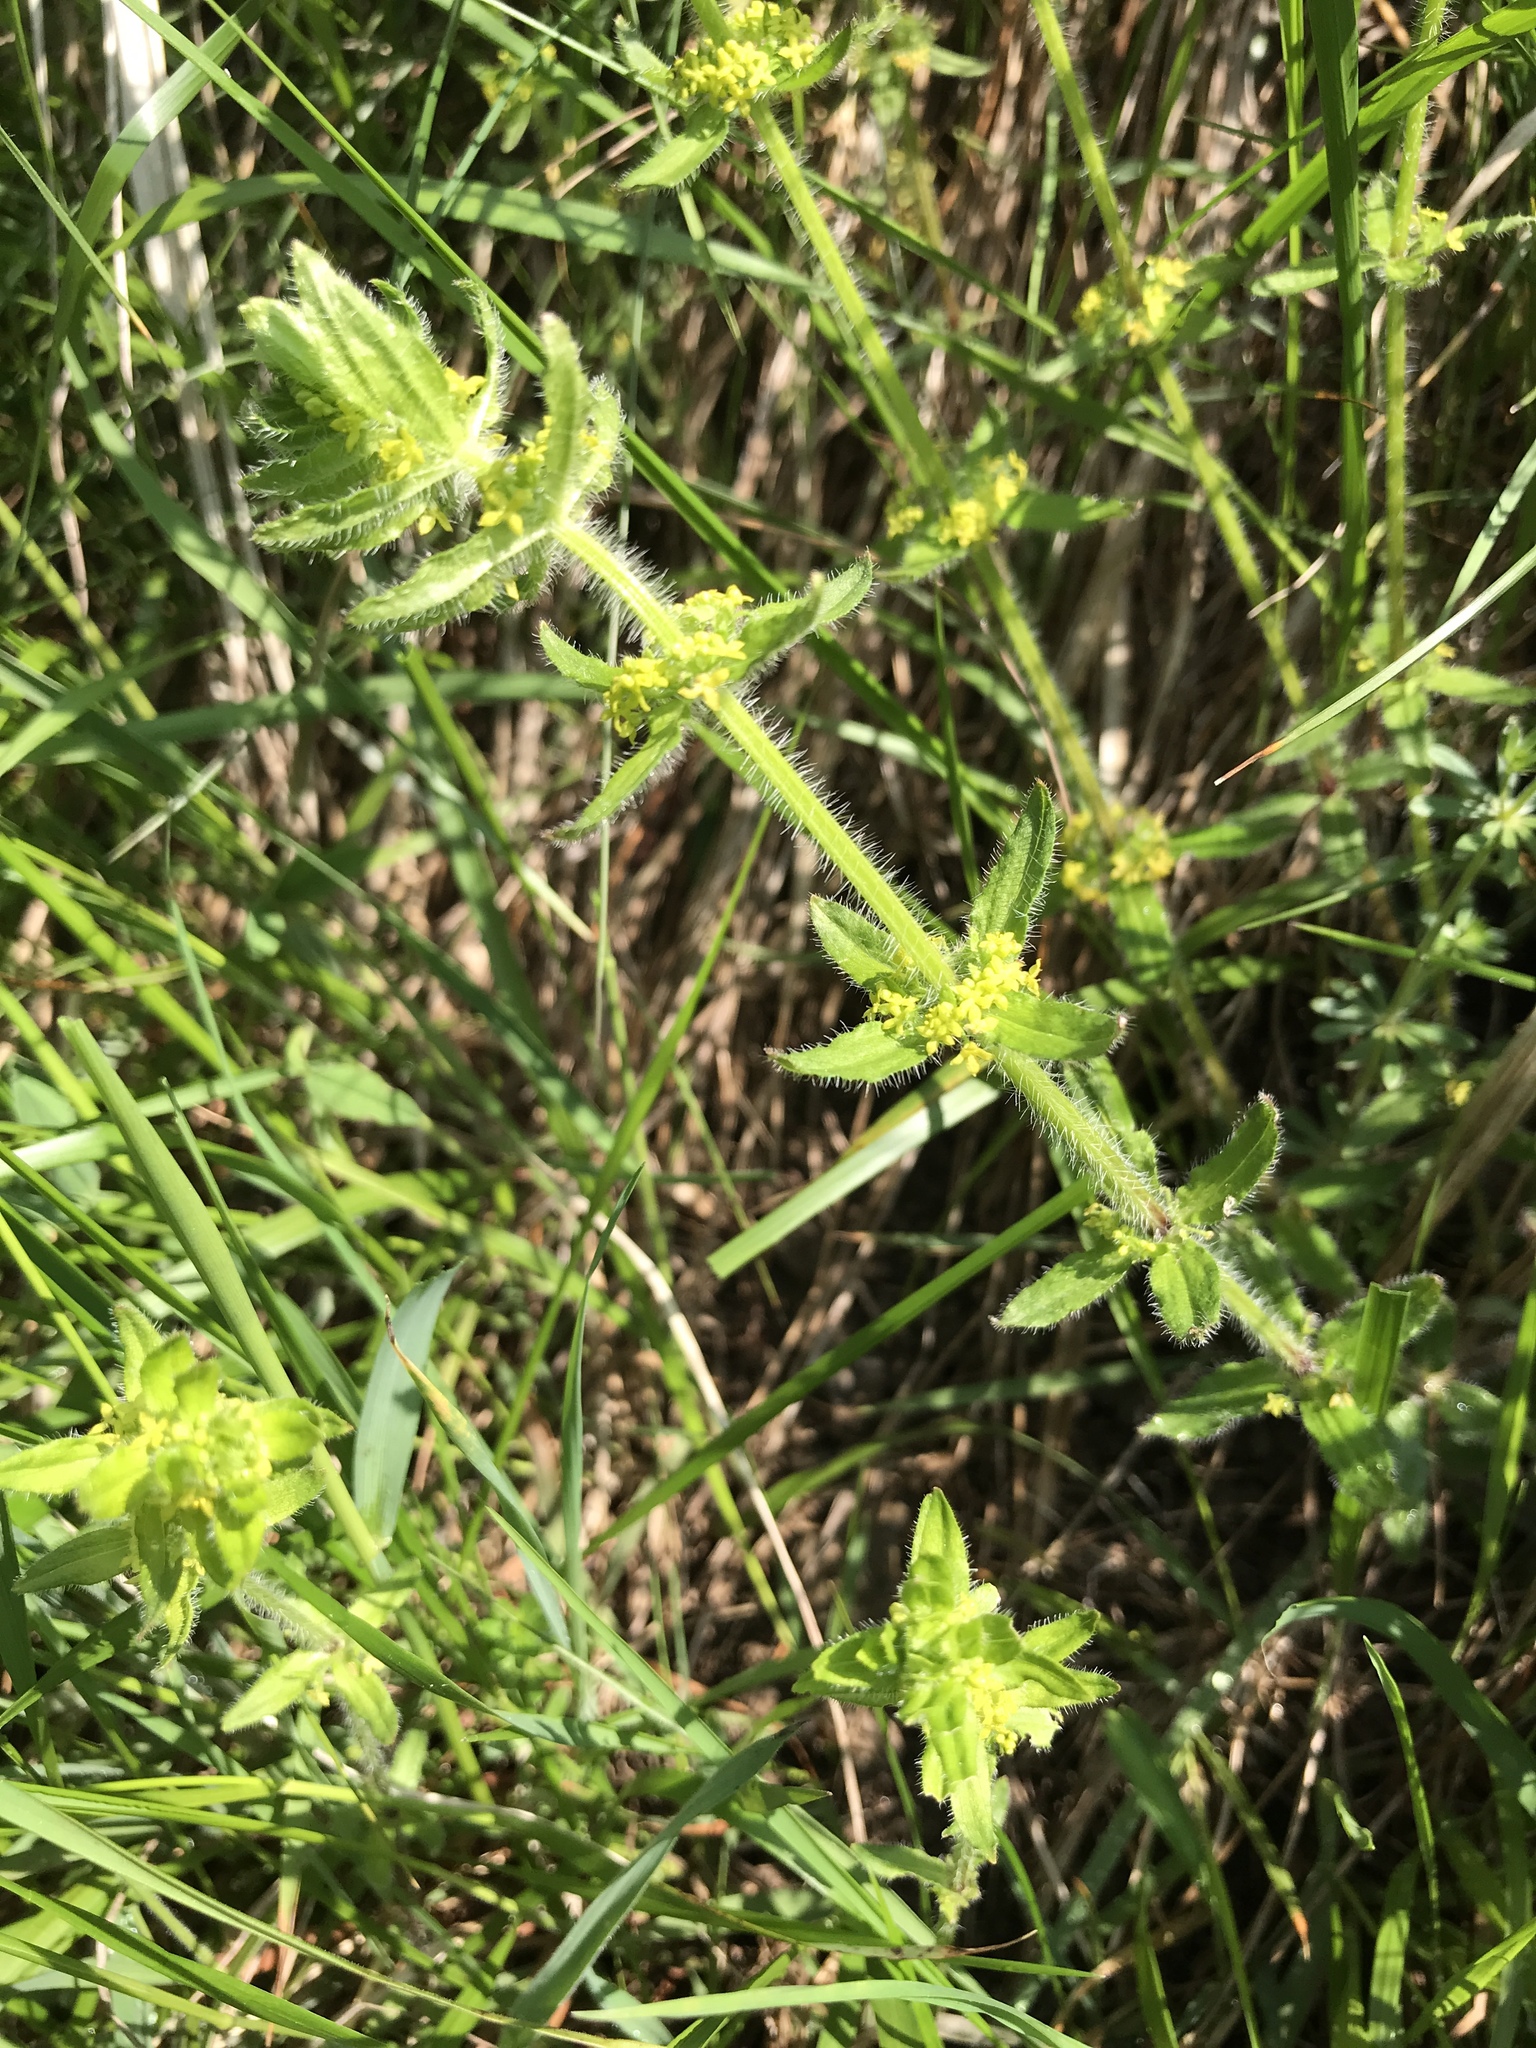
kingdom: Plantae
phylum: Tracheophyta
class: Magnoliopsida
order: Gentianales
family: Rubiaceae
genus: Cruciata
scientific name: Cruciata laevipes
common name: Crosswort
